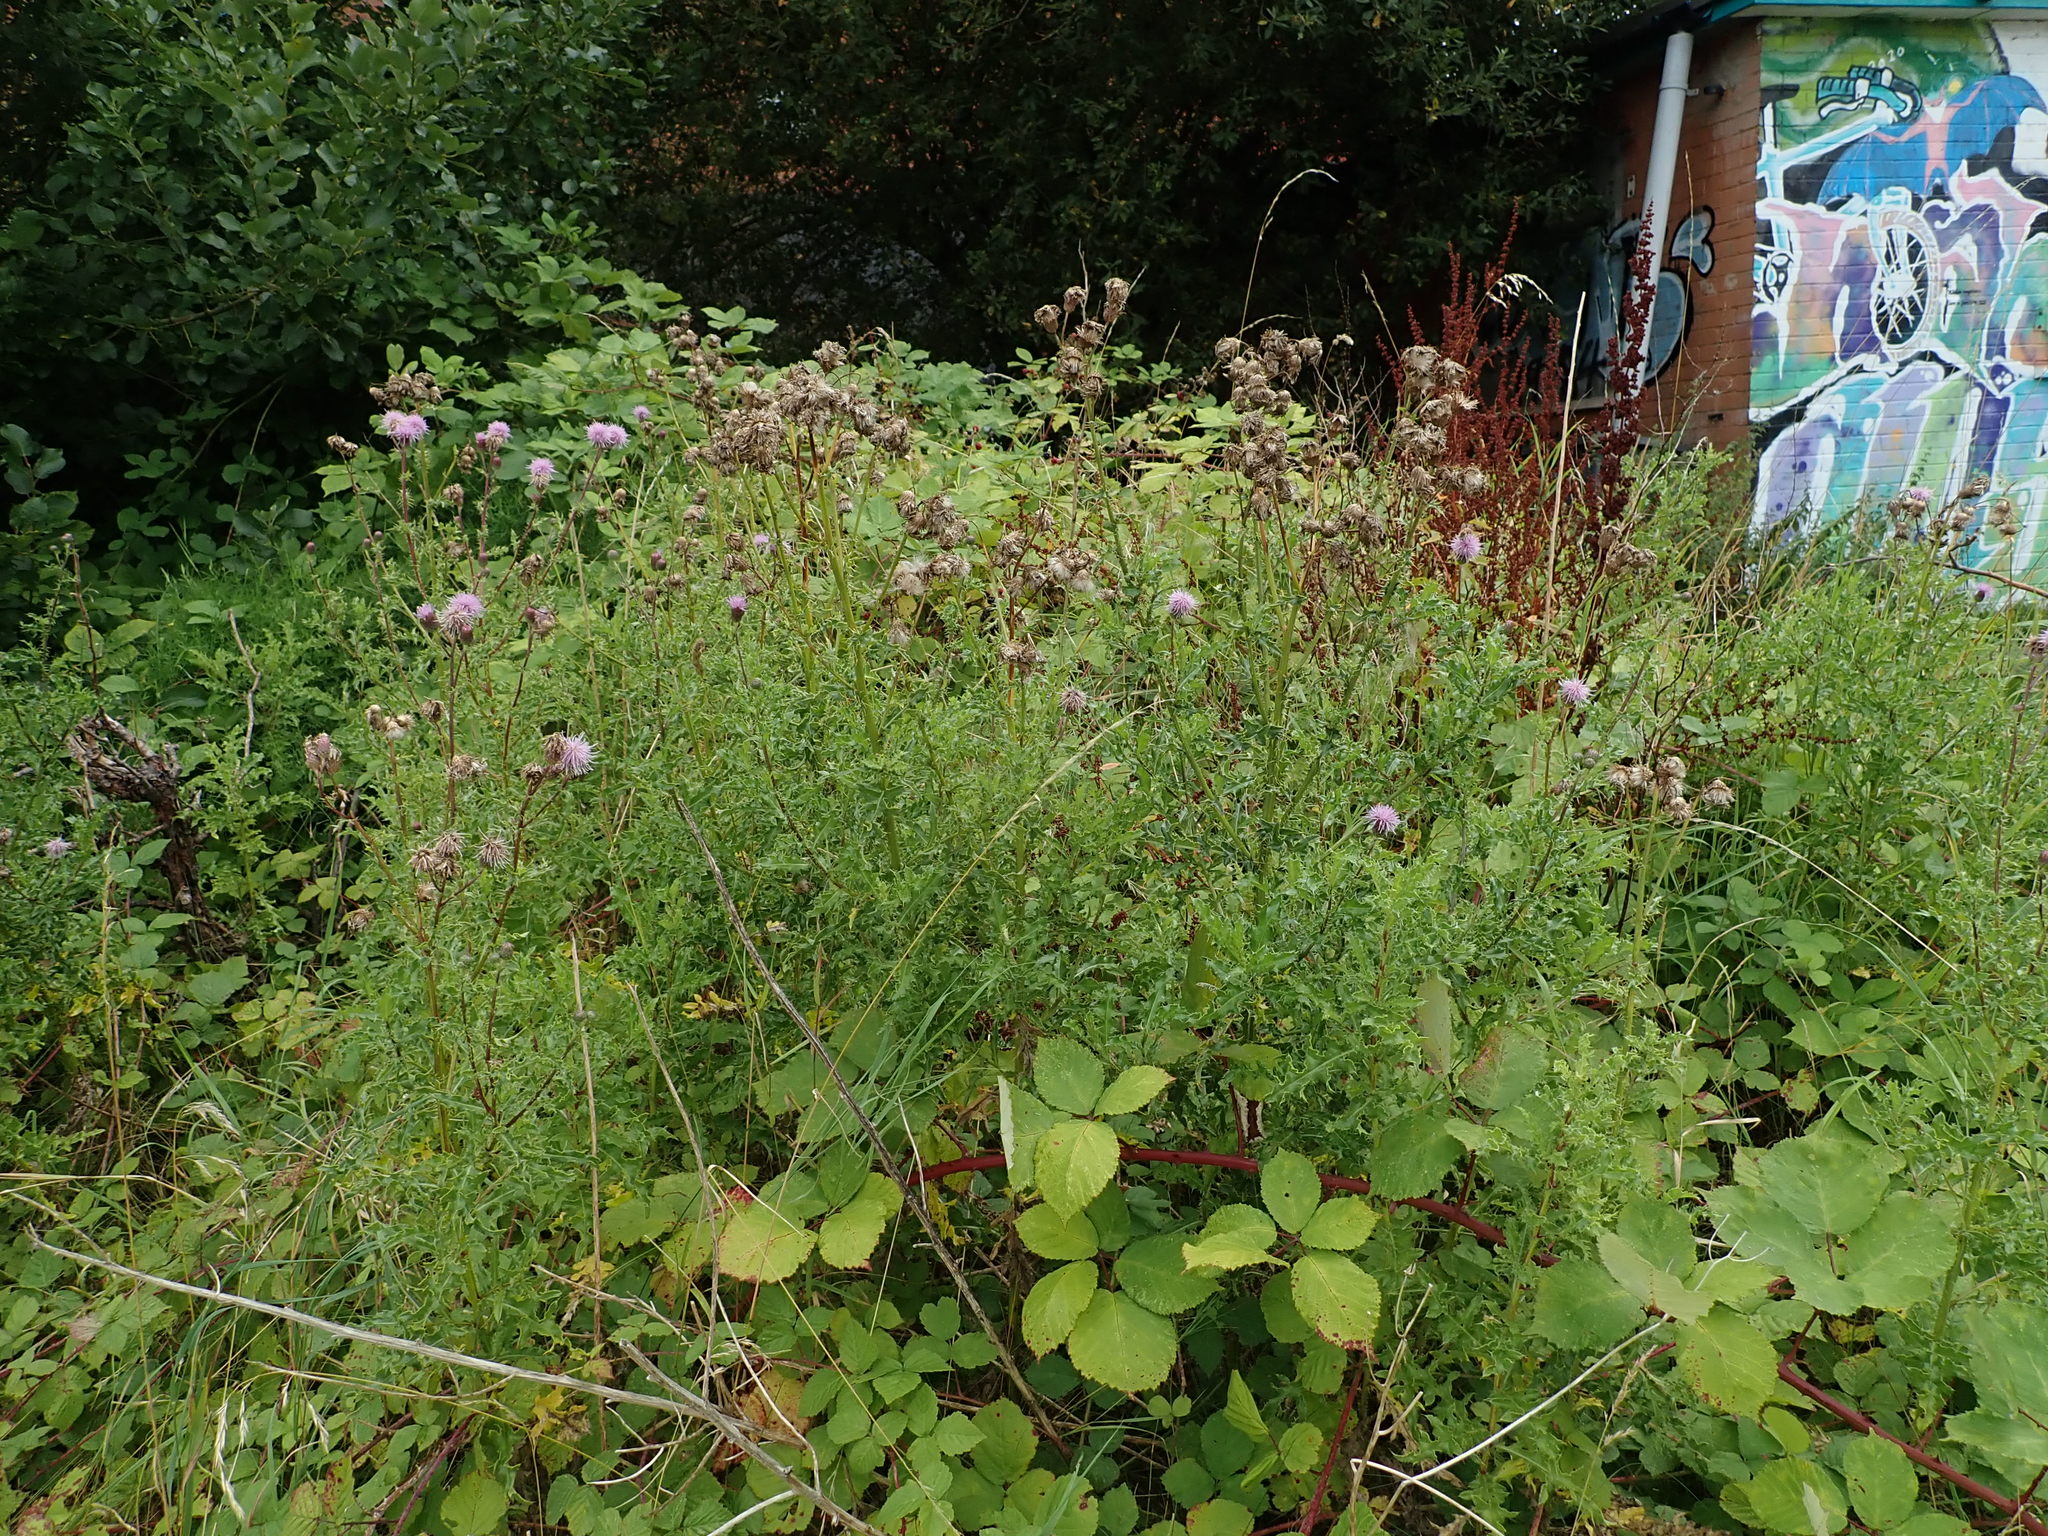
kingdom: Plantae
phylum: Tracheophyta
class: Magnoliopsida
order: Asterales
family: Asteraceae
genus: Cirsium
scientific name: Cirsium arvense
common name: Creeping thistle
